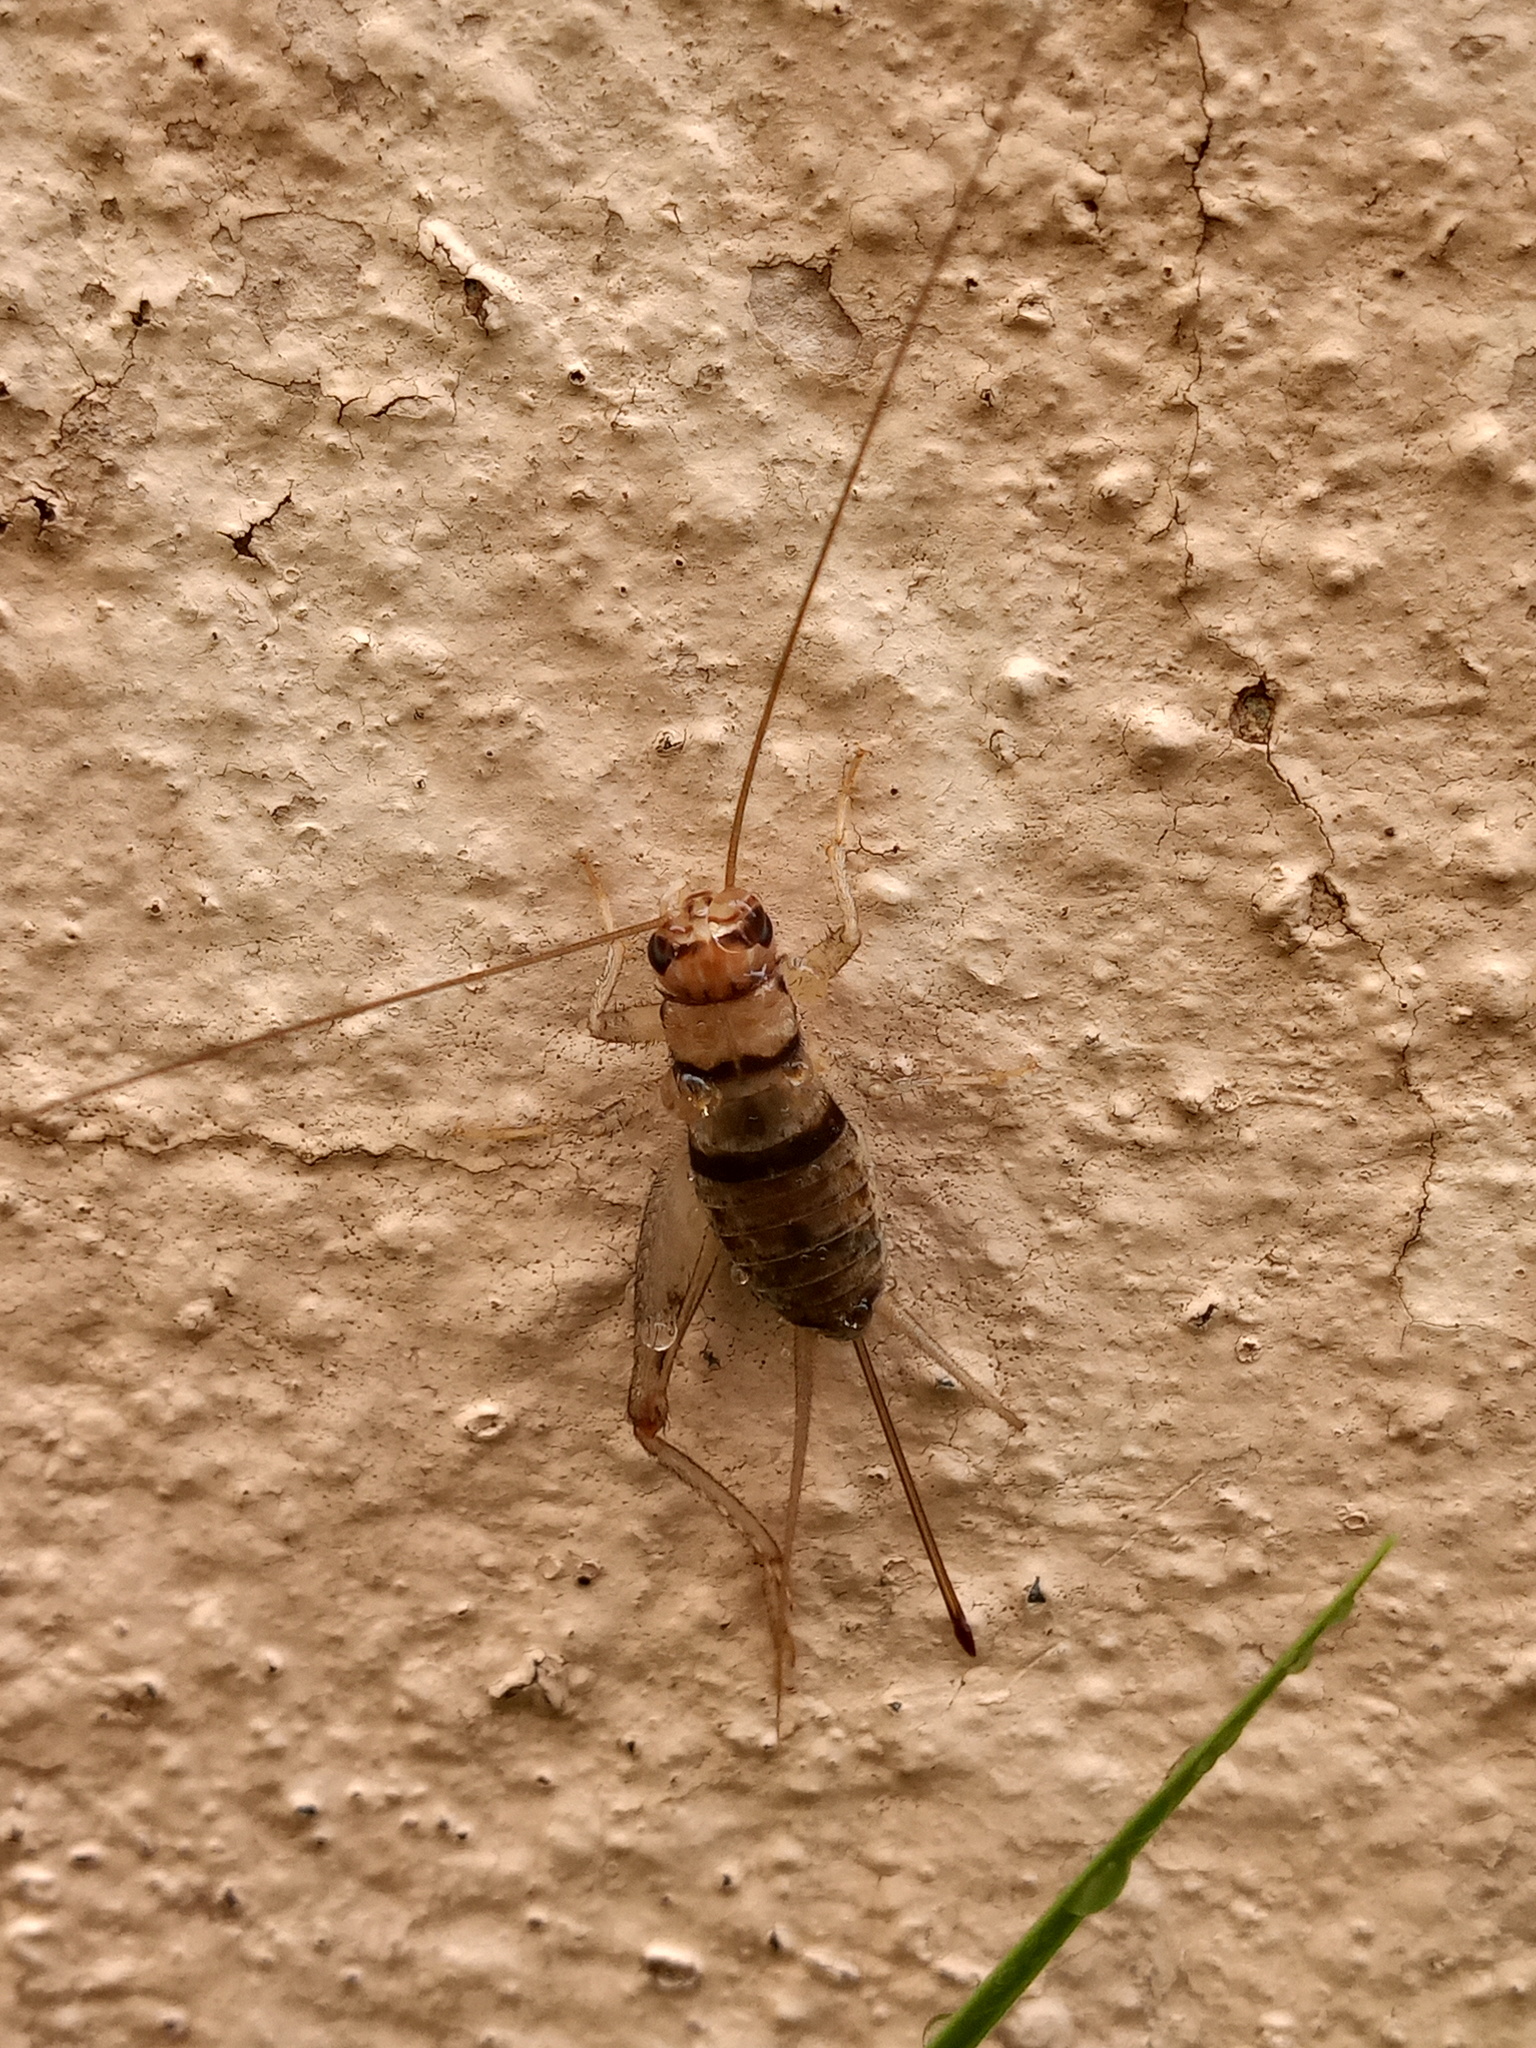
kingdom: Animalia
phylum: Arthropoda
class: Insecta
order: Orthoptera
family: Gryllidae
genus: Gryllodes
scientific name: Gryllodes sigillatus
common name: Tropical house cricket
